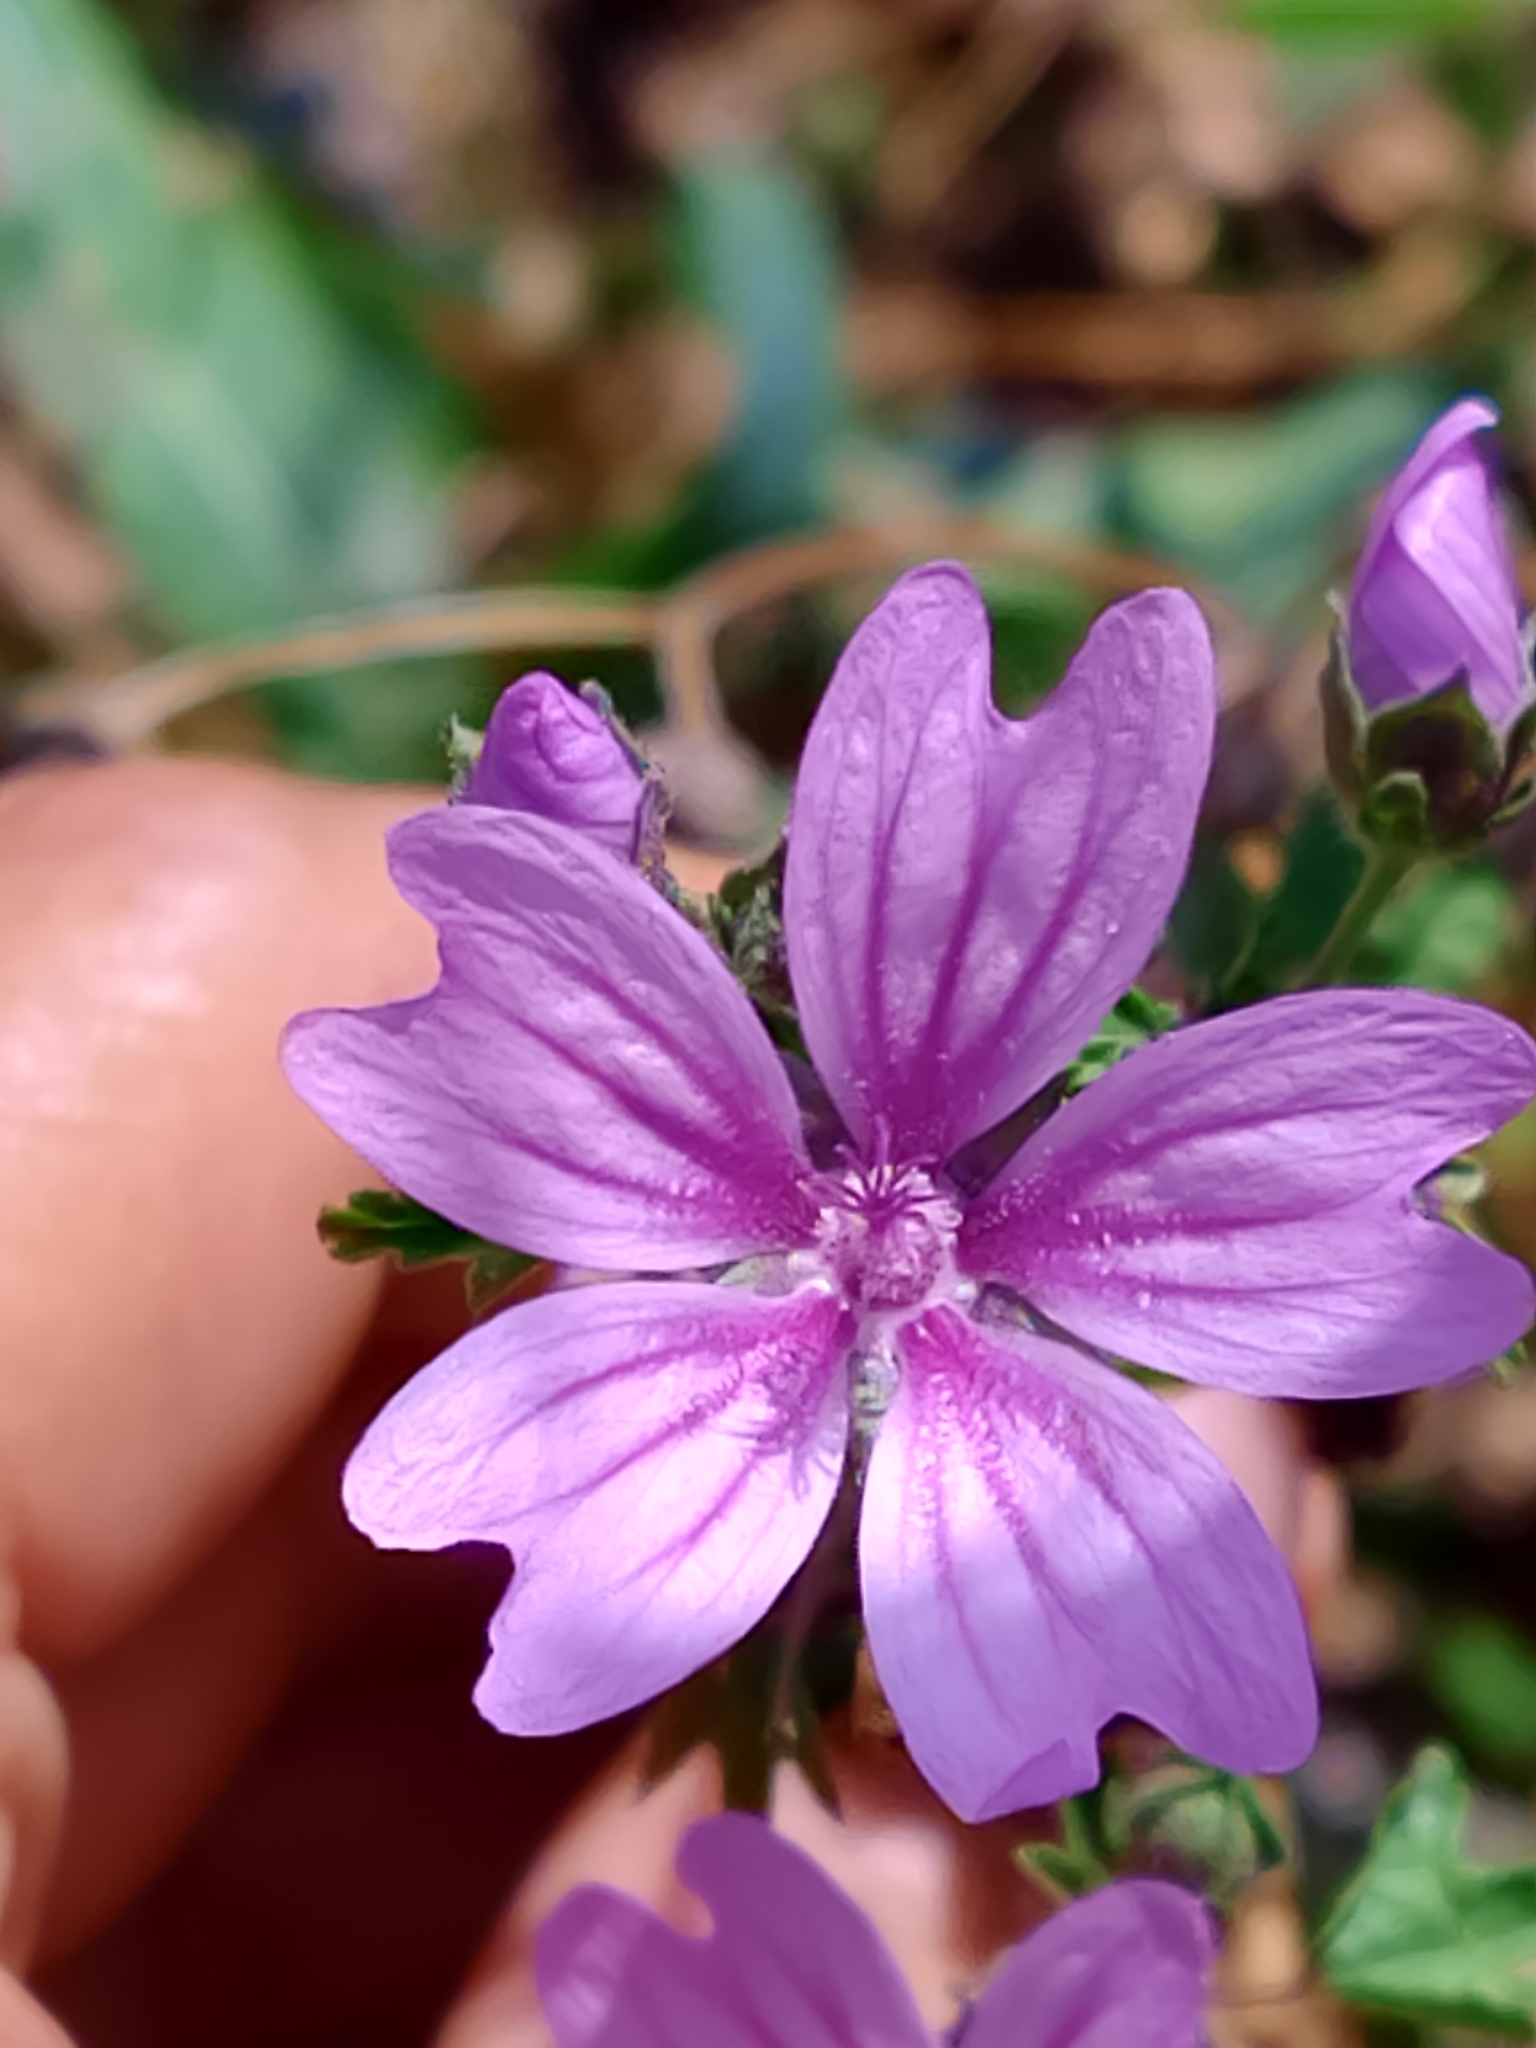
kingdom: Plantae
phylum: Tracheophyta
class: Magnoliopsida
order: Malvales
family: Malvaceae
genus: Malva
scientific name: Malva sylvestris
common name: Common mallow
